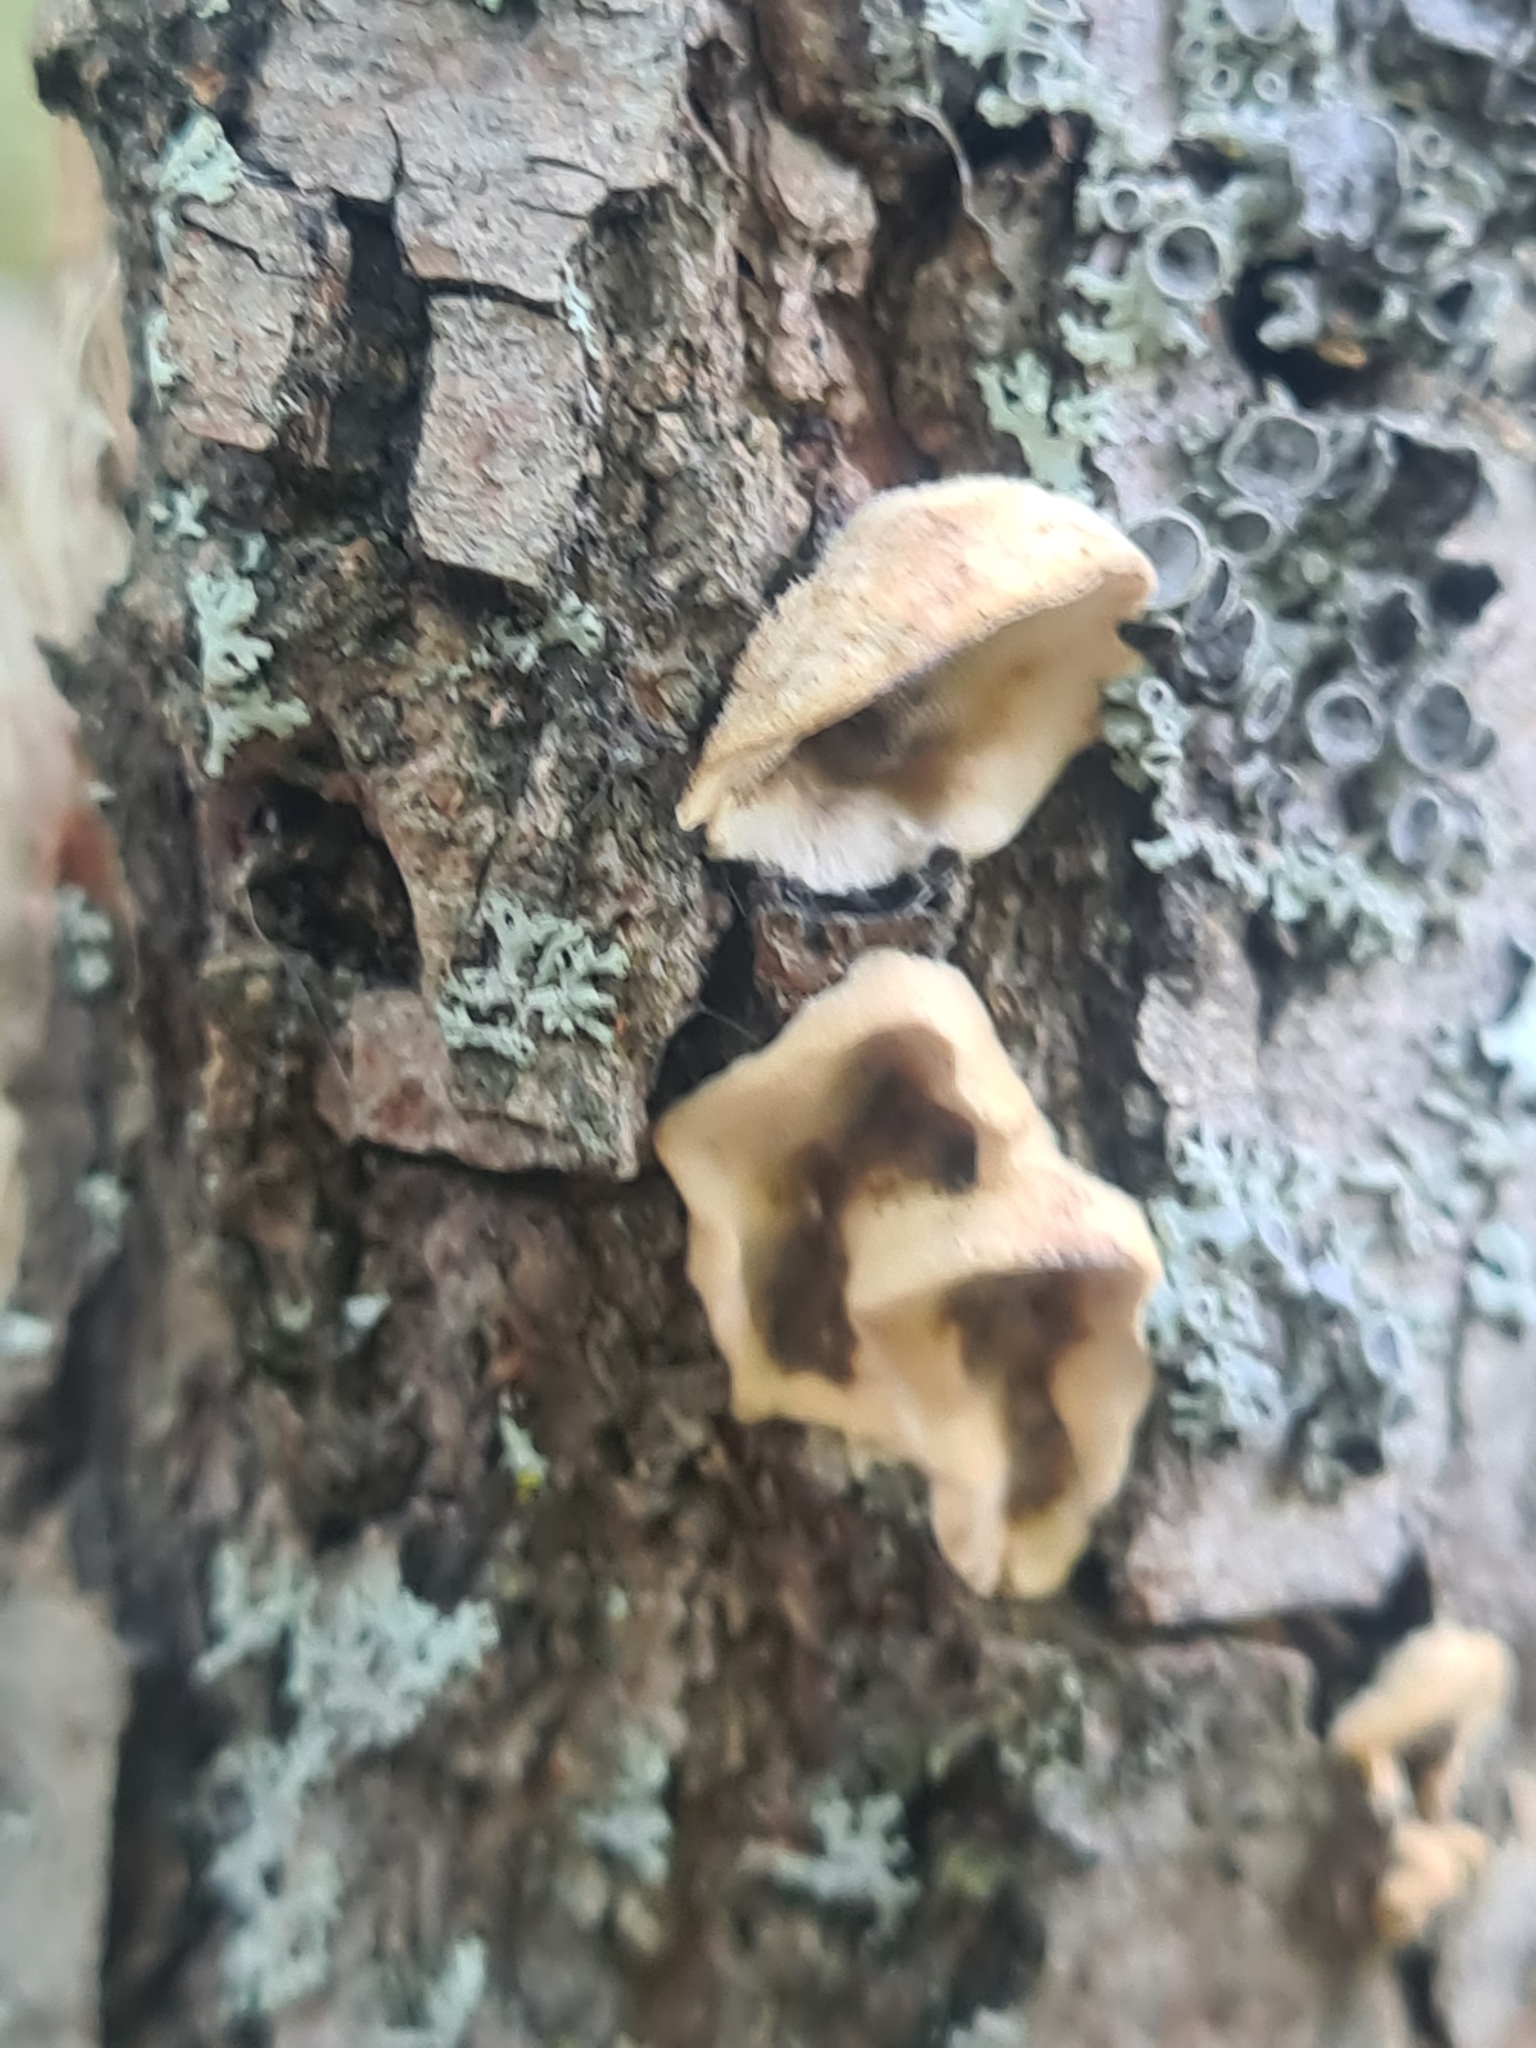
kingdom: Fungi
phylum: Basidiomycota
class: Agaricomycetes
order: Polyporales
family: Phanerochaetaceae
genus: Bjerkandera
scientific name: Bjerkandera adusta
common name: Smoky bracket
